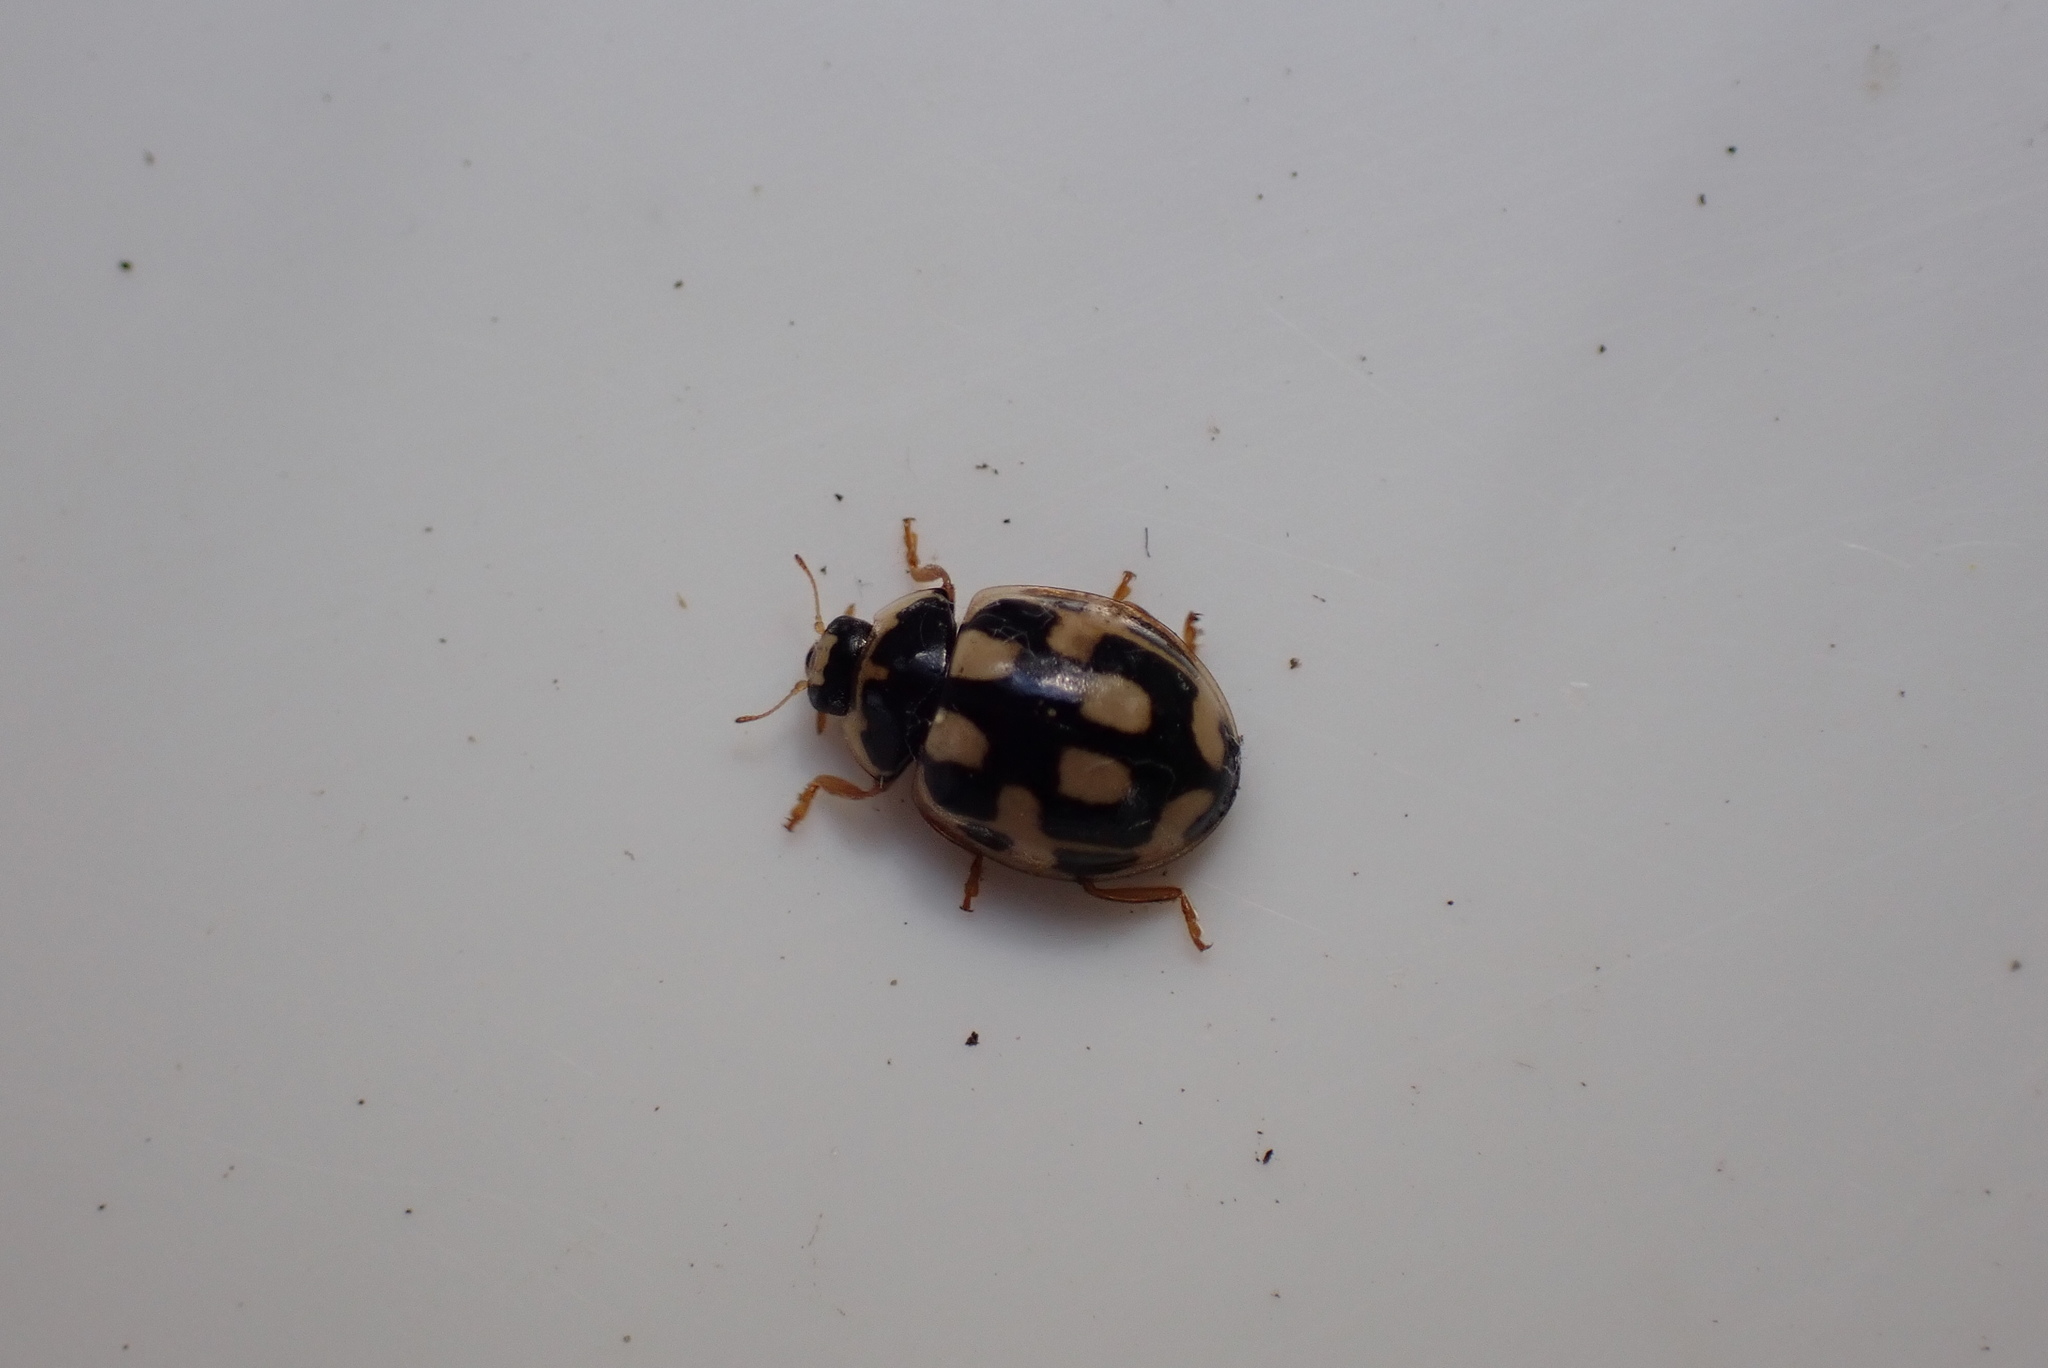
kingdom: Animalia
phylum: Arthropoda
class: Insecta
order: Coleoptera
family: Coccinellidae
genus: Propylaea
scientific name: Propylaea quatuordecimpunctata
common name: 14-spotted ladybird beetle
